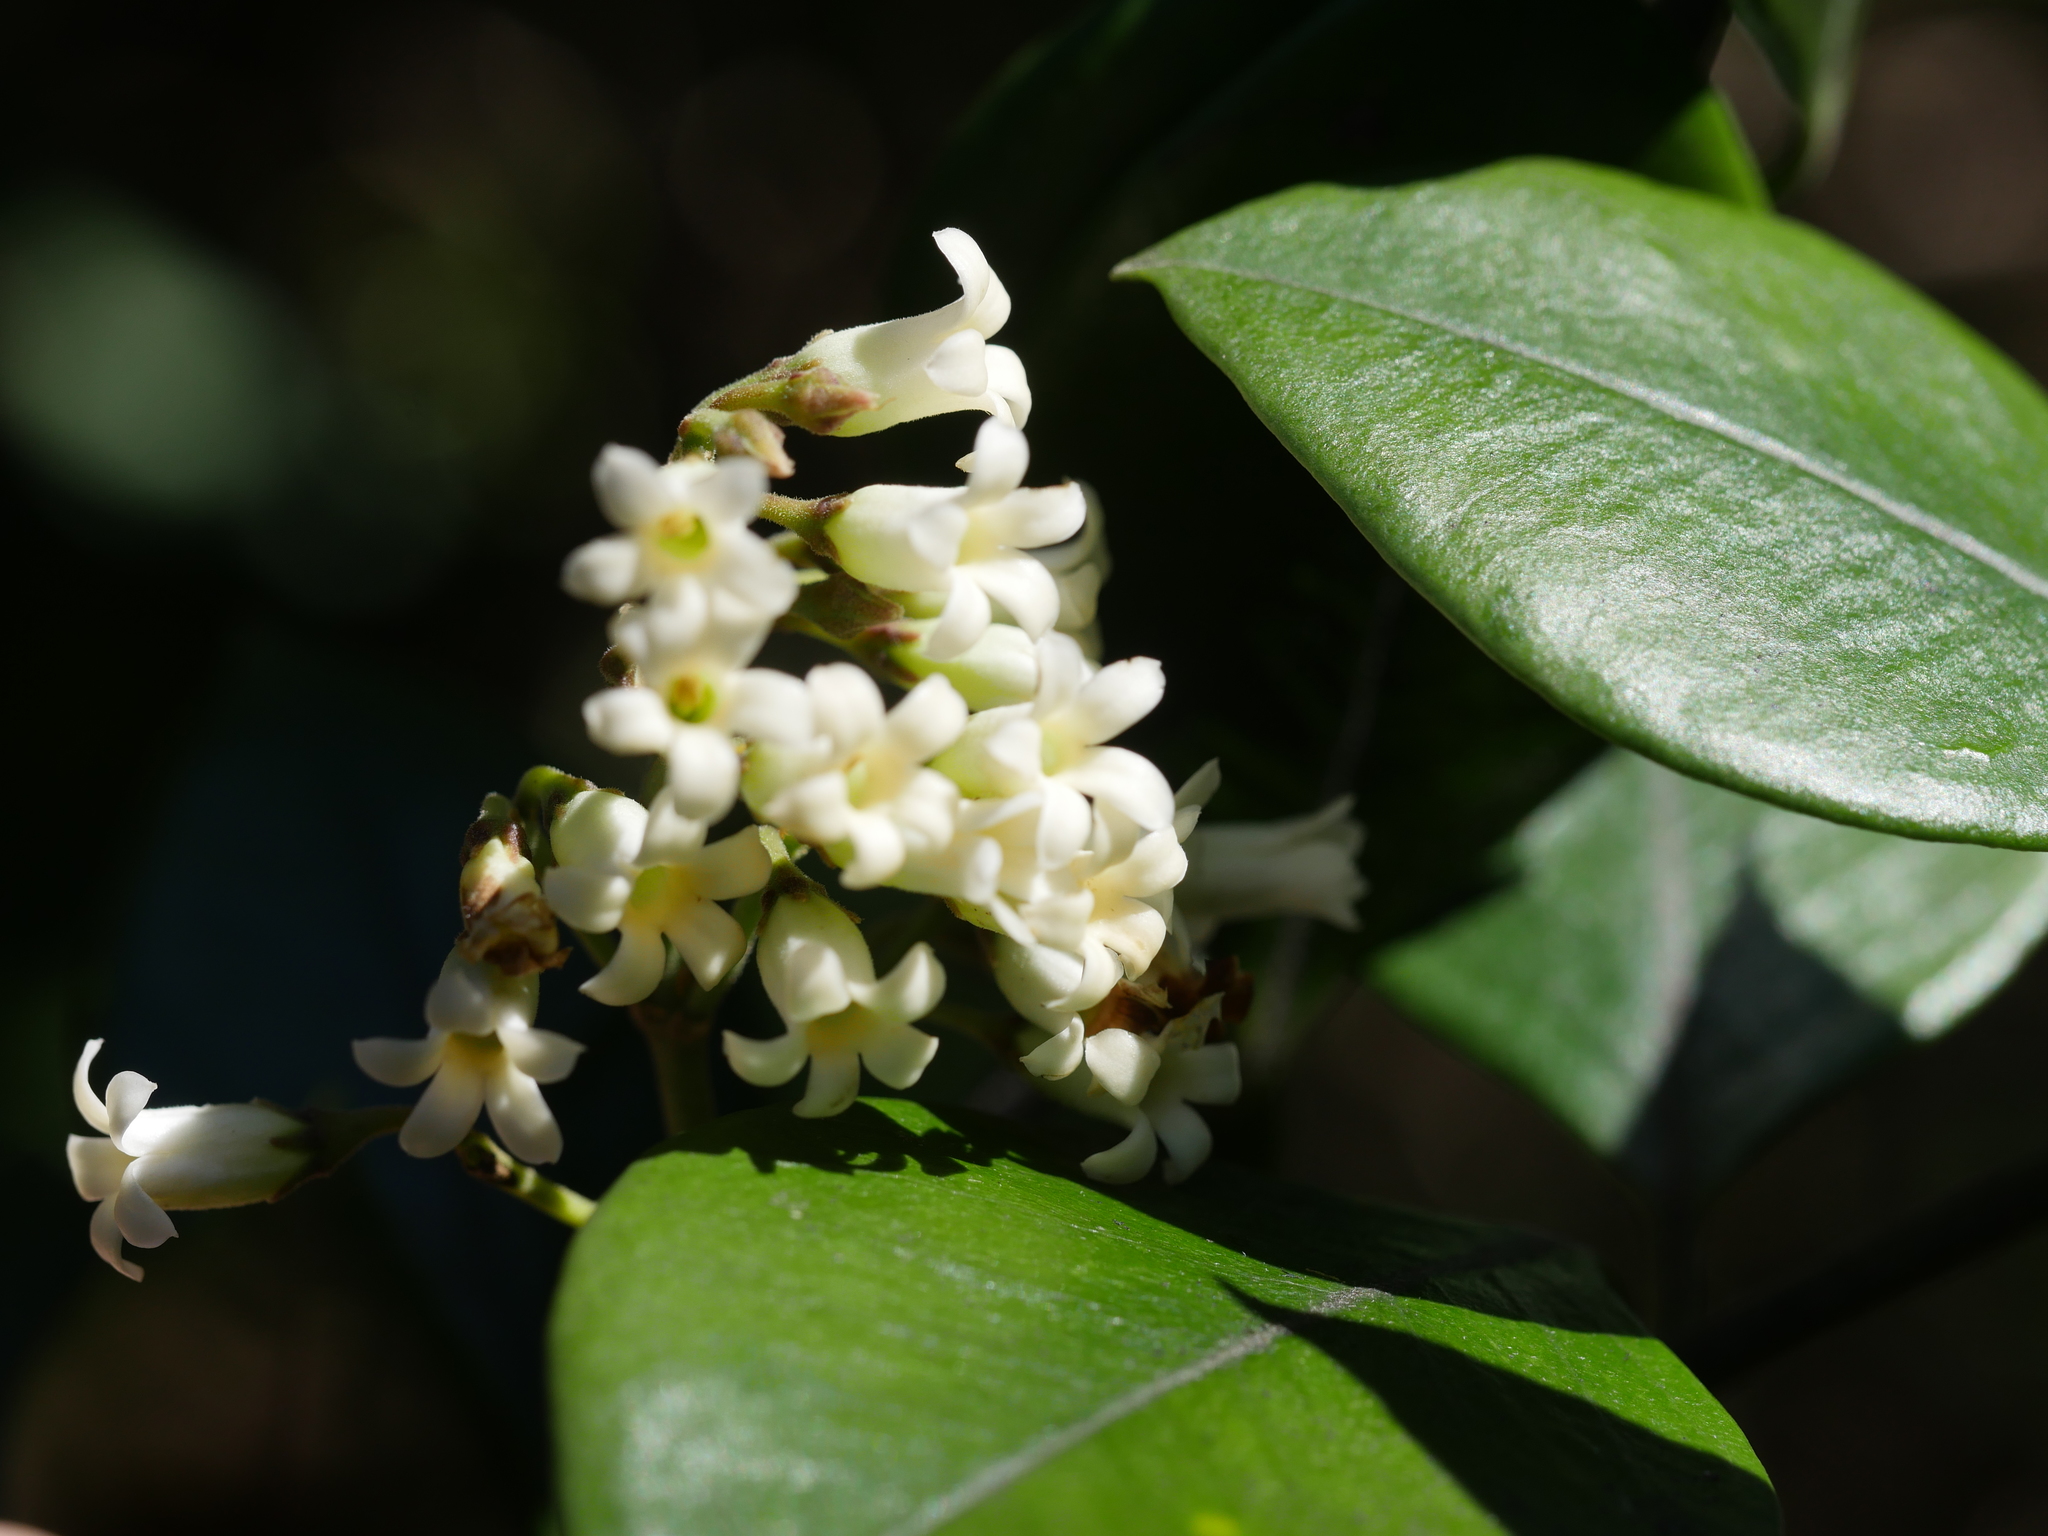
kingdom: Plantae
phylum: Tracheophyta
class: Magnoliopsida
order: Gentianales
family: Apocynaceae
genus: Parsonsia
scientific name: Parsonsia heterophylla
